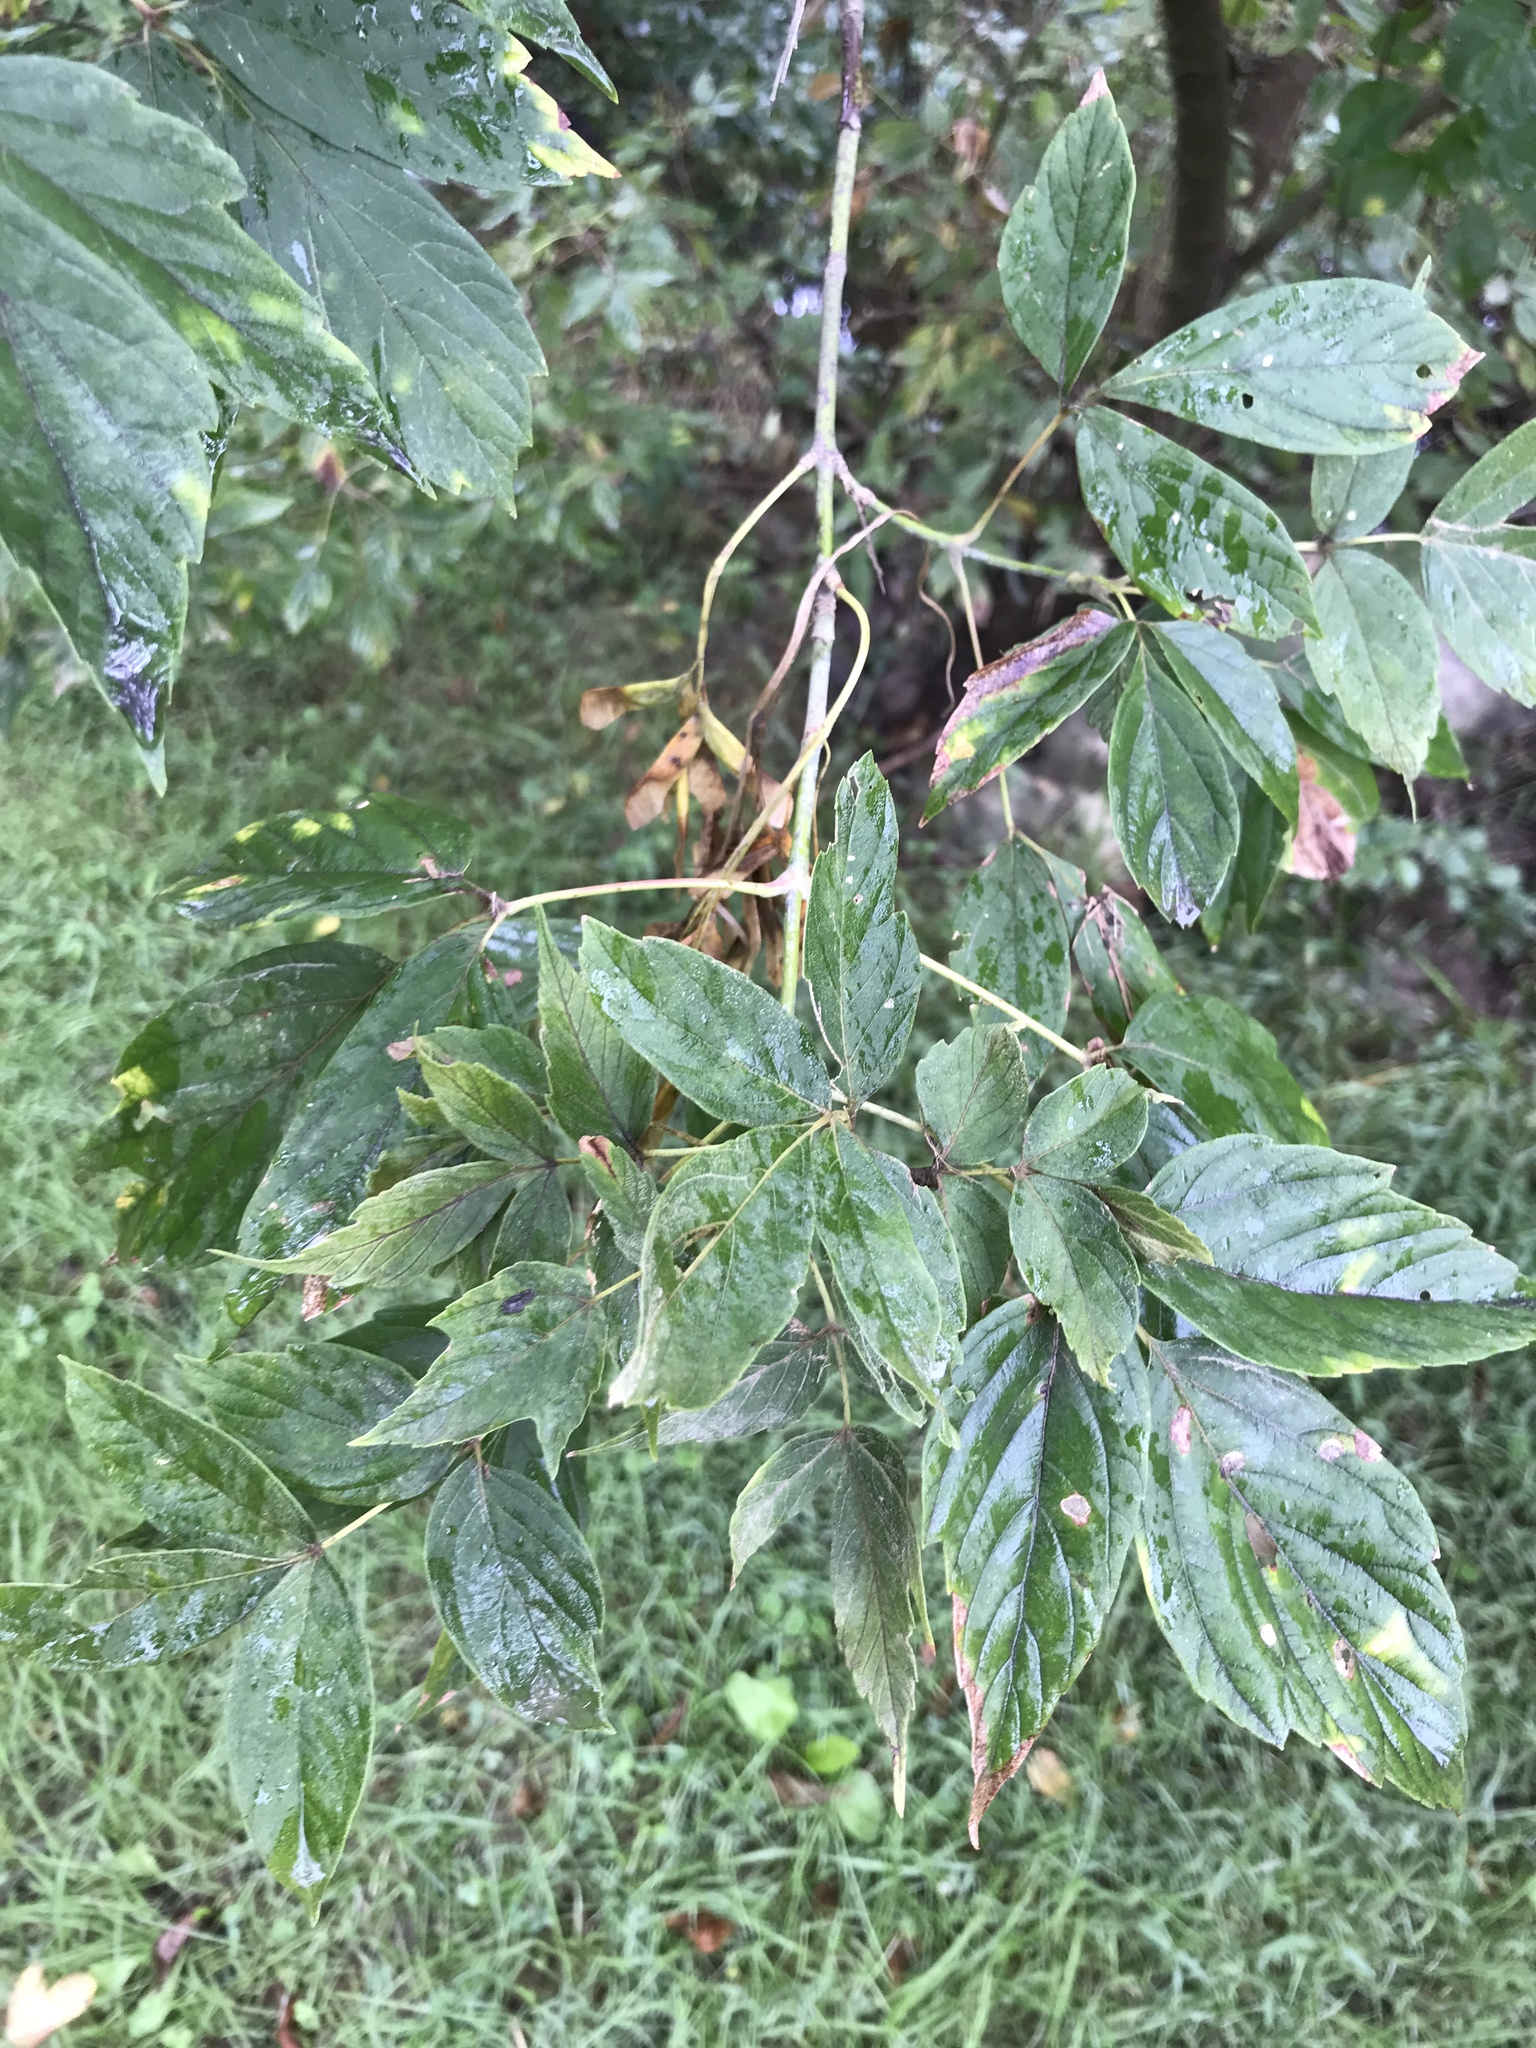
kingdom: Plantae
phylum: Tracheophyta
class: Magnoliopsida
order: Sapindales
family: Sapindaceae
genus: Acer
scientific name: Acer negundo
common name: Ashleaf maple
